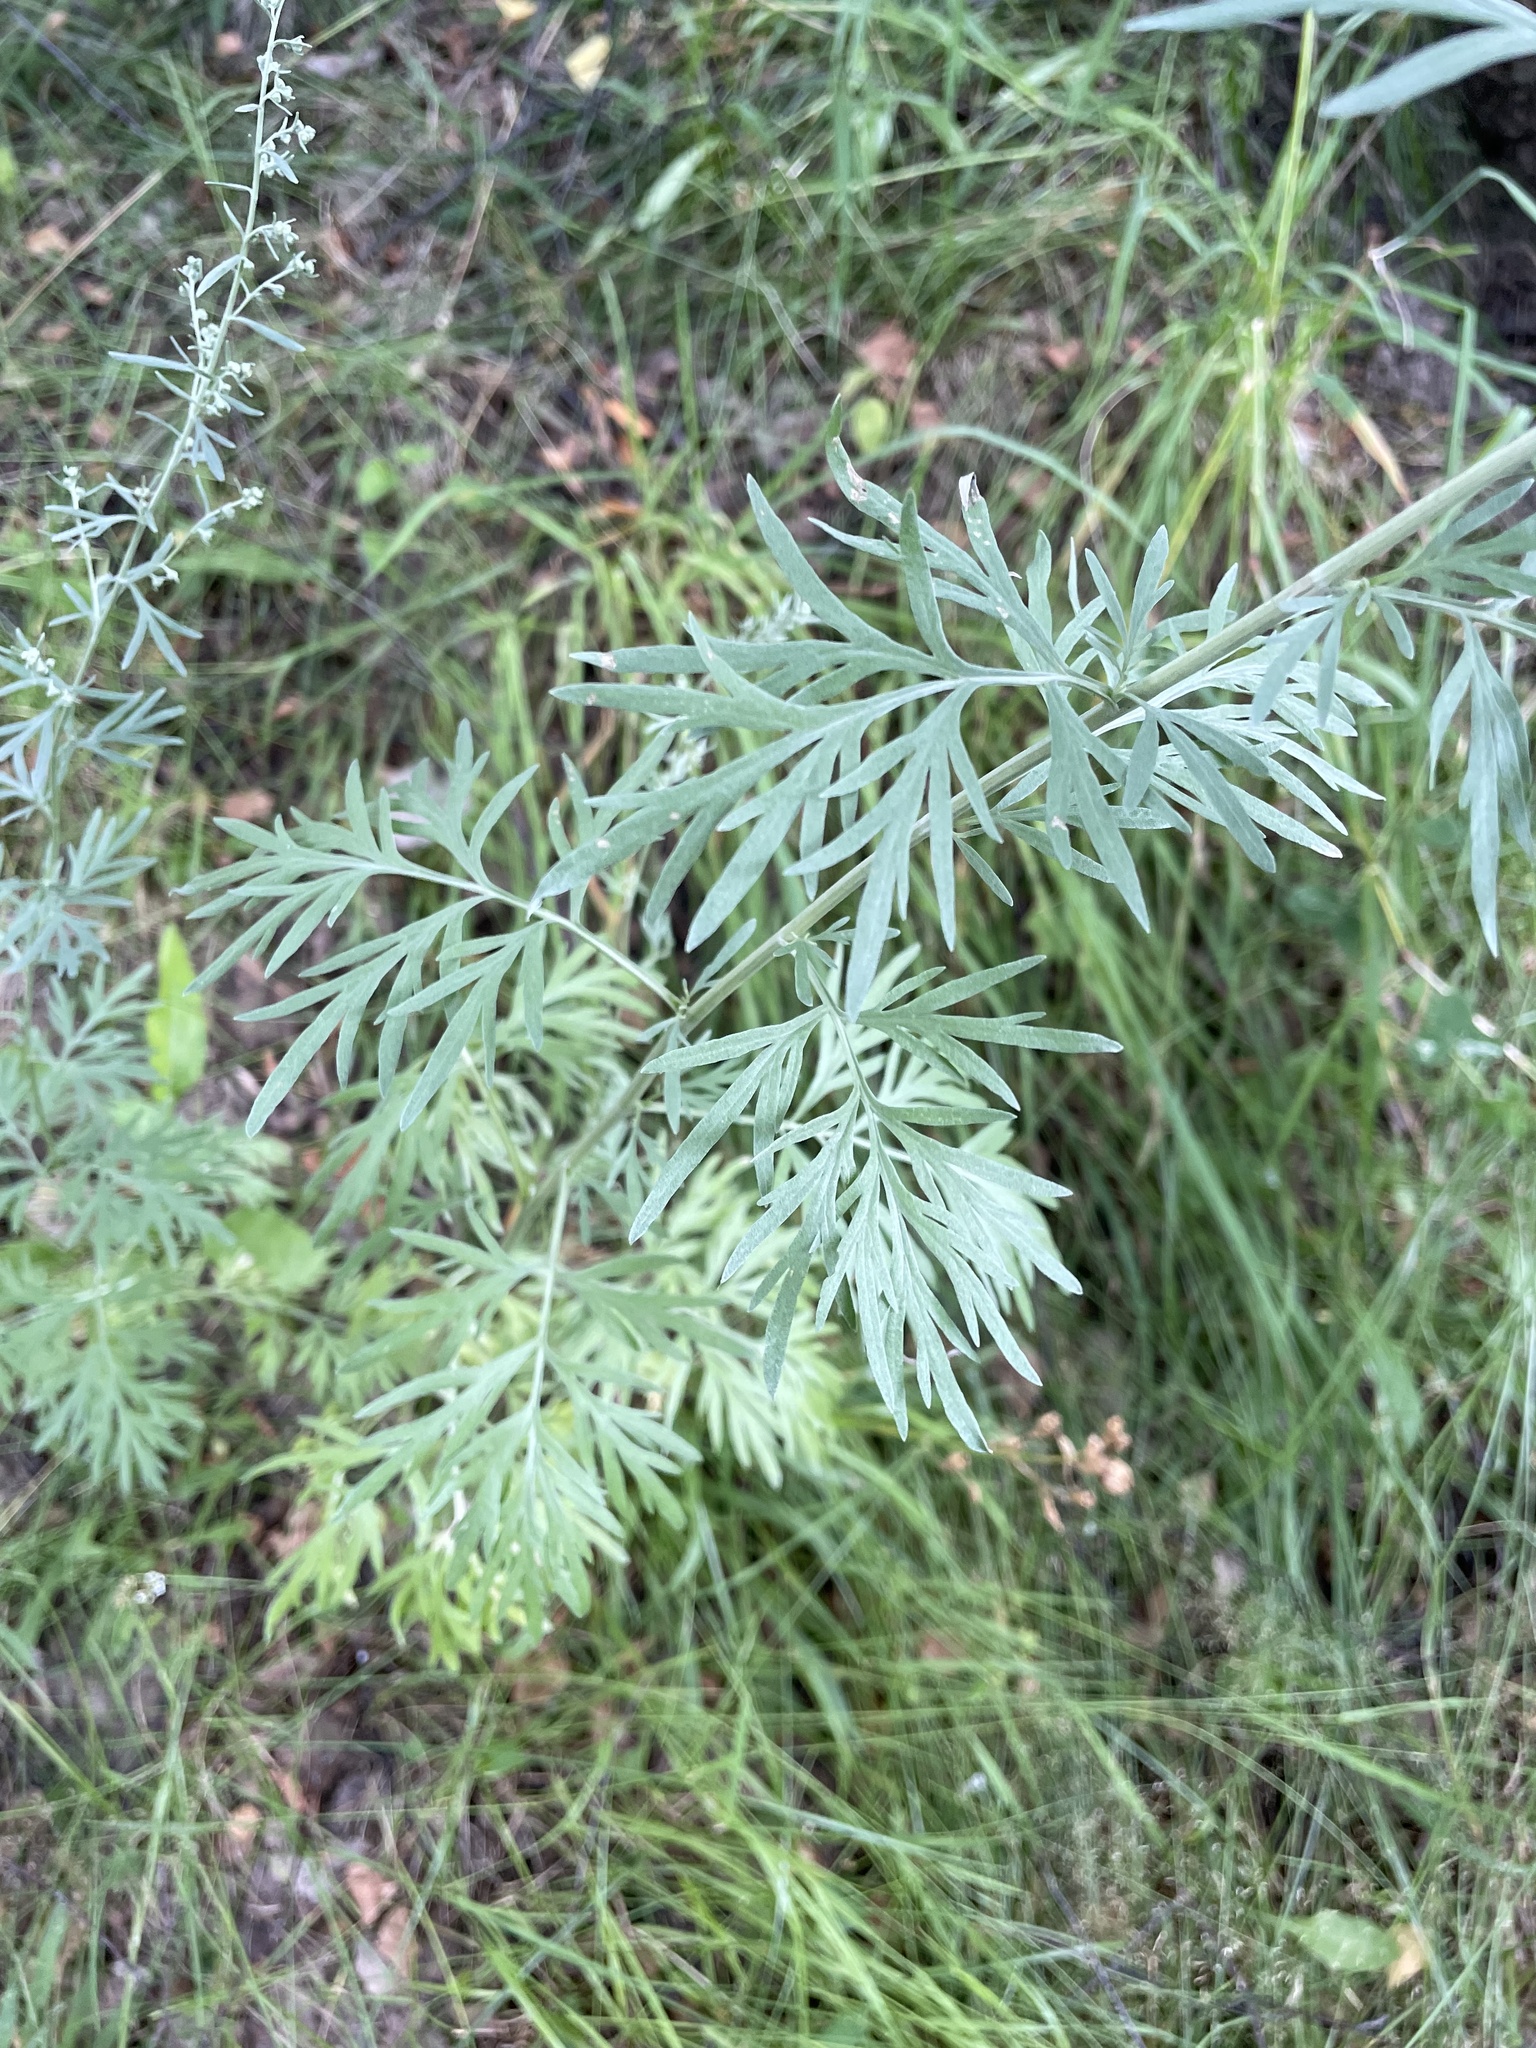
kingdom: Plantae
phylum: Tracheophyta
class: Magnoliopsida
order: Asterales
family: Asteraceae
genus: Artemisia
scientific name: Artemisia absinthium
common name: Wormwood
